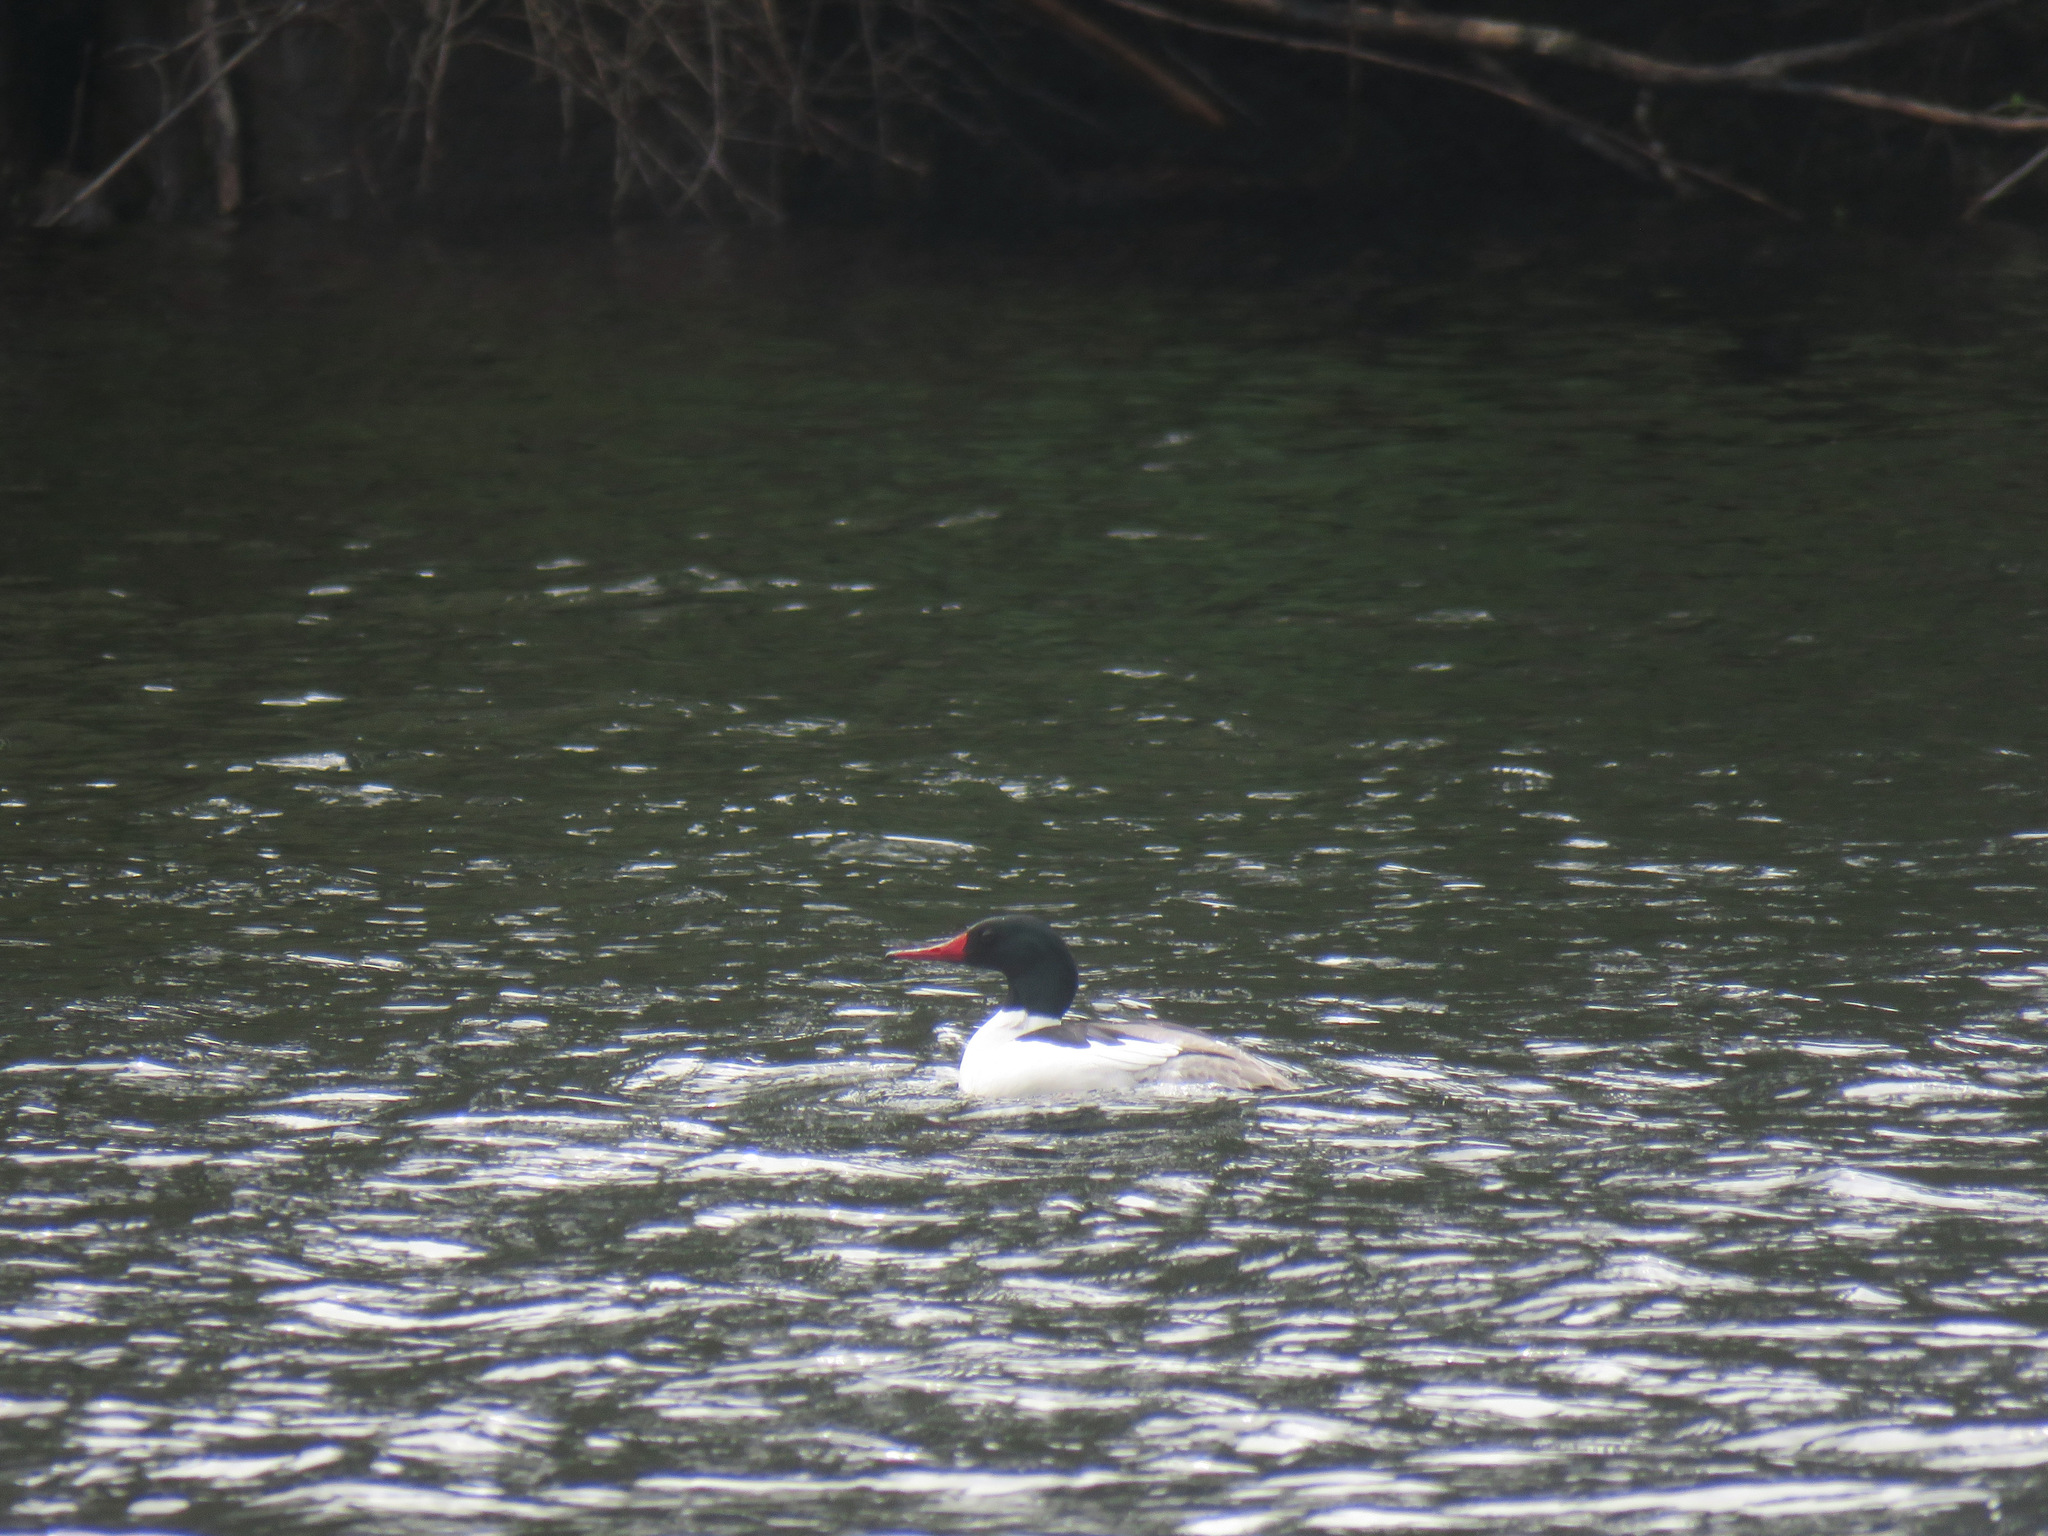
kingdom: Animalia
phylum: Chordata
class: Aves
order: Anseriformes
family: Anatidae
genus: Mergus
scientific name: Mergus merganser
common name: Common merganser
